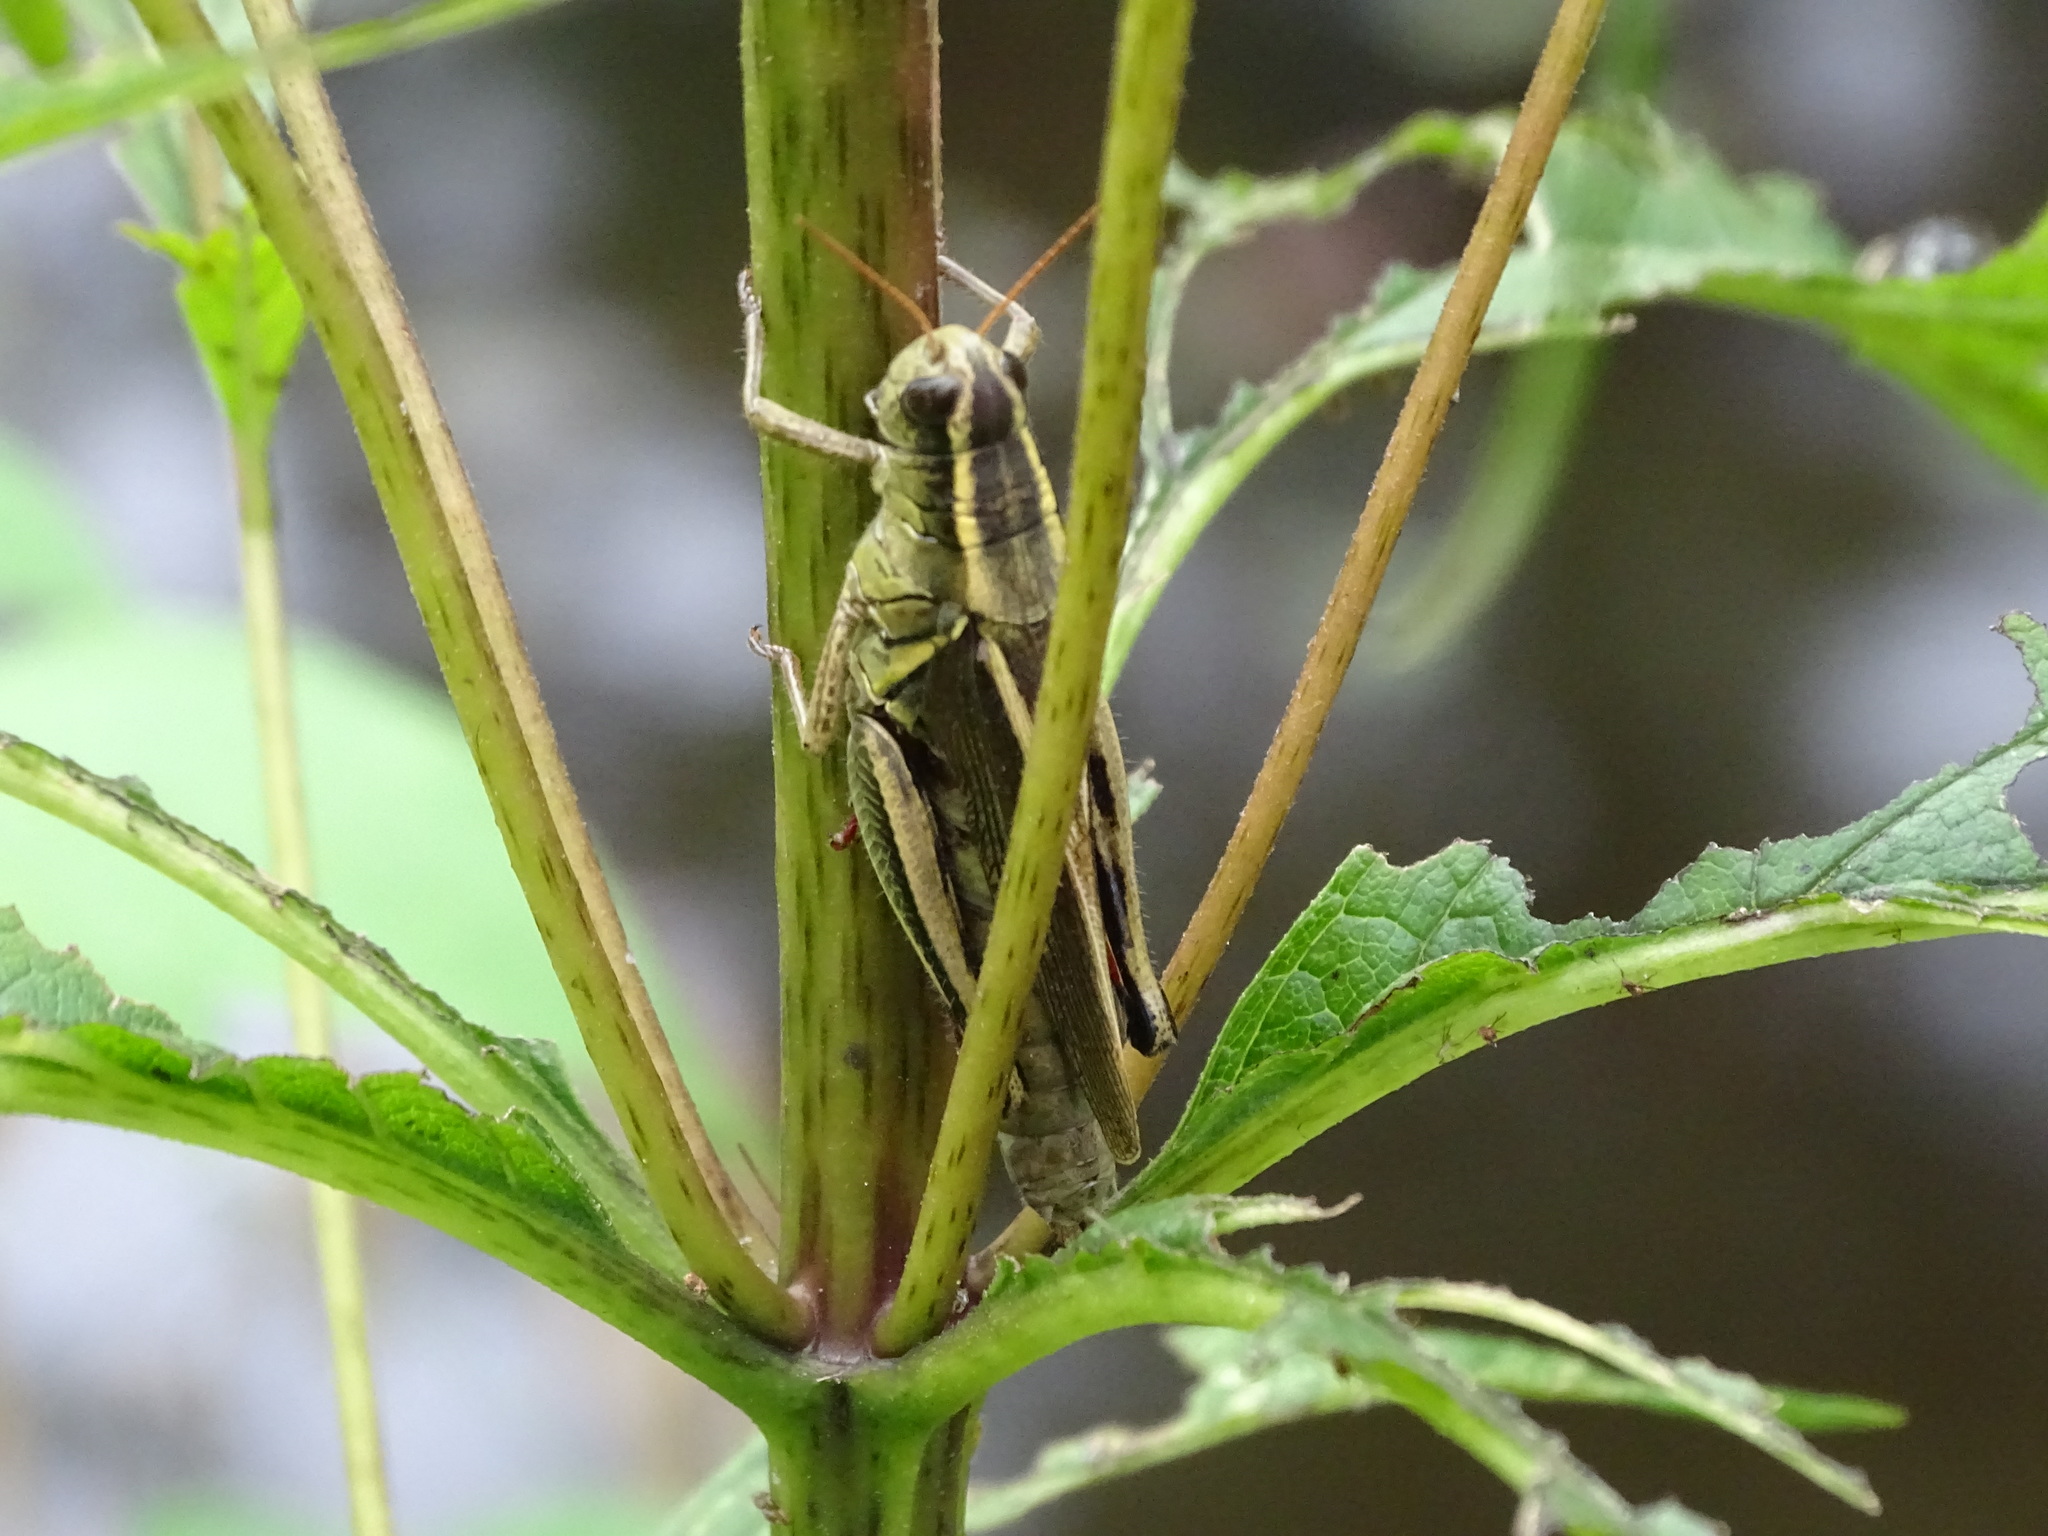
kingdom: Animalia
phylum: Arthropoda
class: Insecta
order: Orthoptera
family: Acrididae
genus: Melanoplus
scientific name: Melanoplus bivittatus
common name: Two-striped grasshopper
